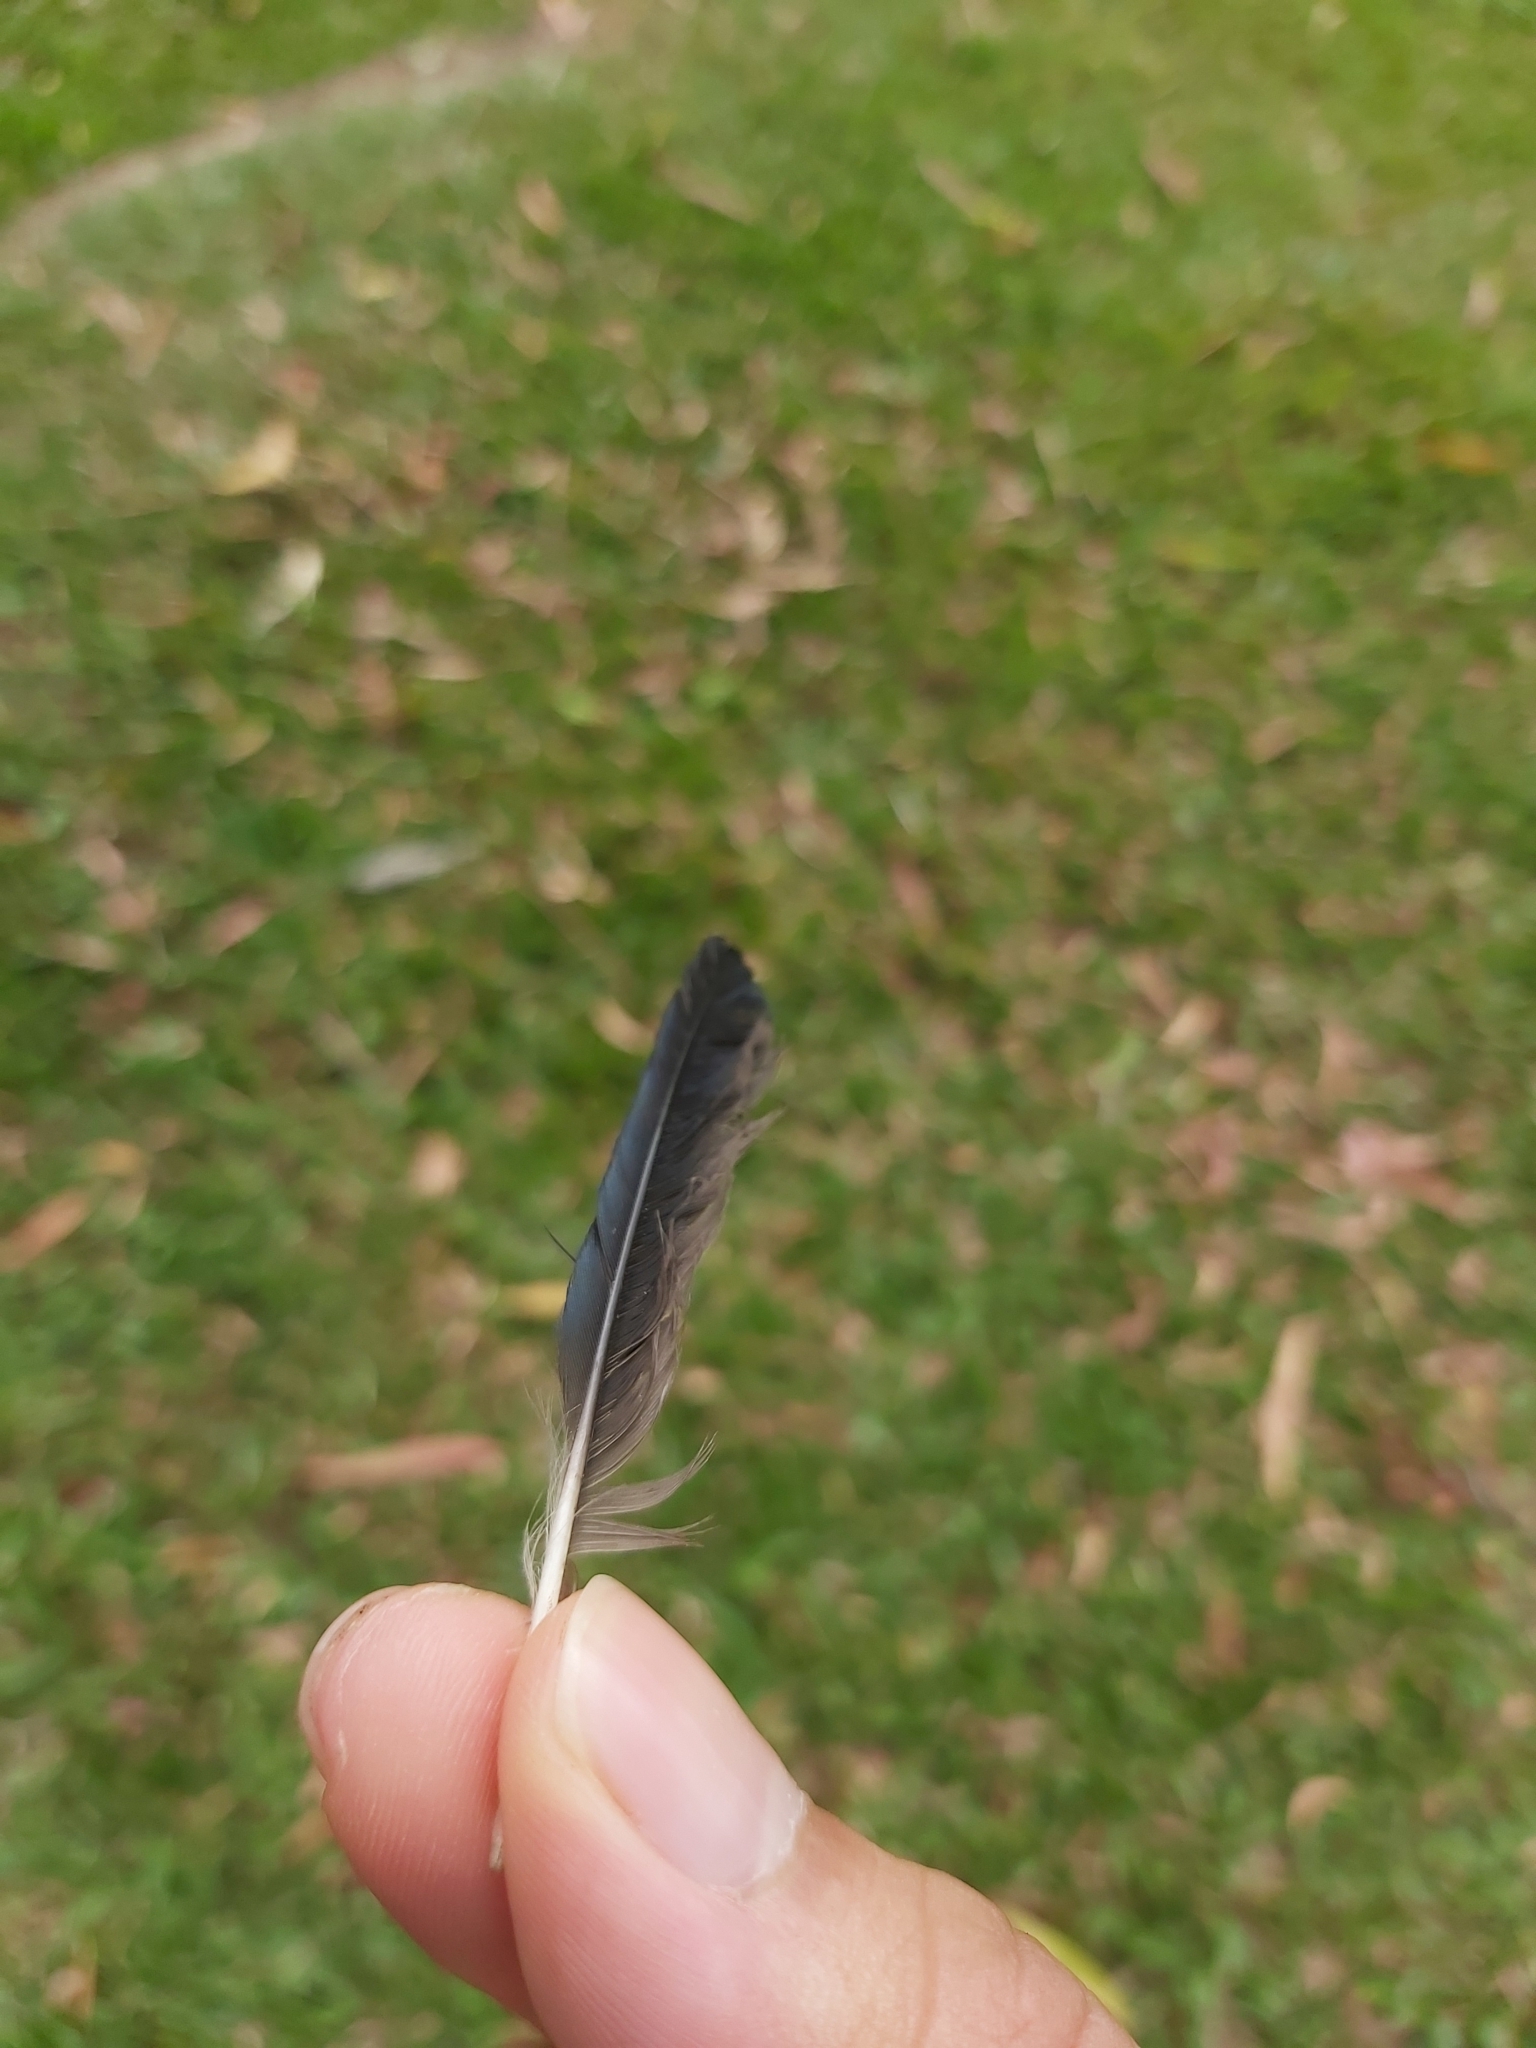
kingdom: Animalia
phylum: Chordata
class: Aves
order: Passeriformes
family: Sturnidae
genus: Aplonis
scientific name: Aplonis metallica
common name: Metallic starling
